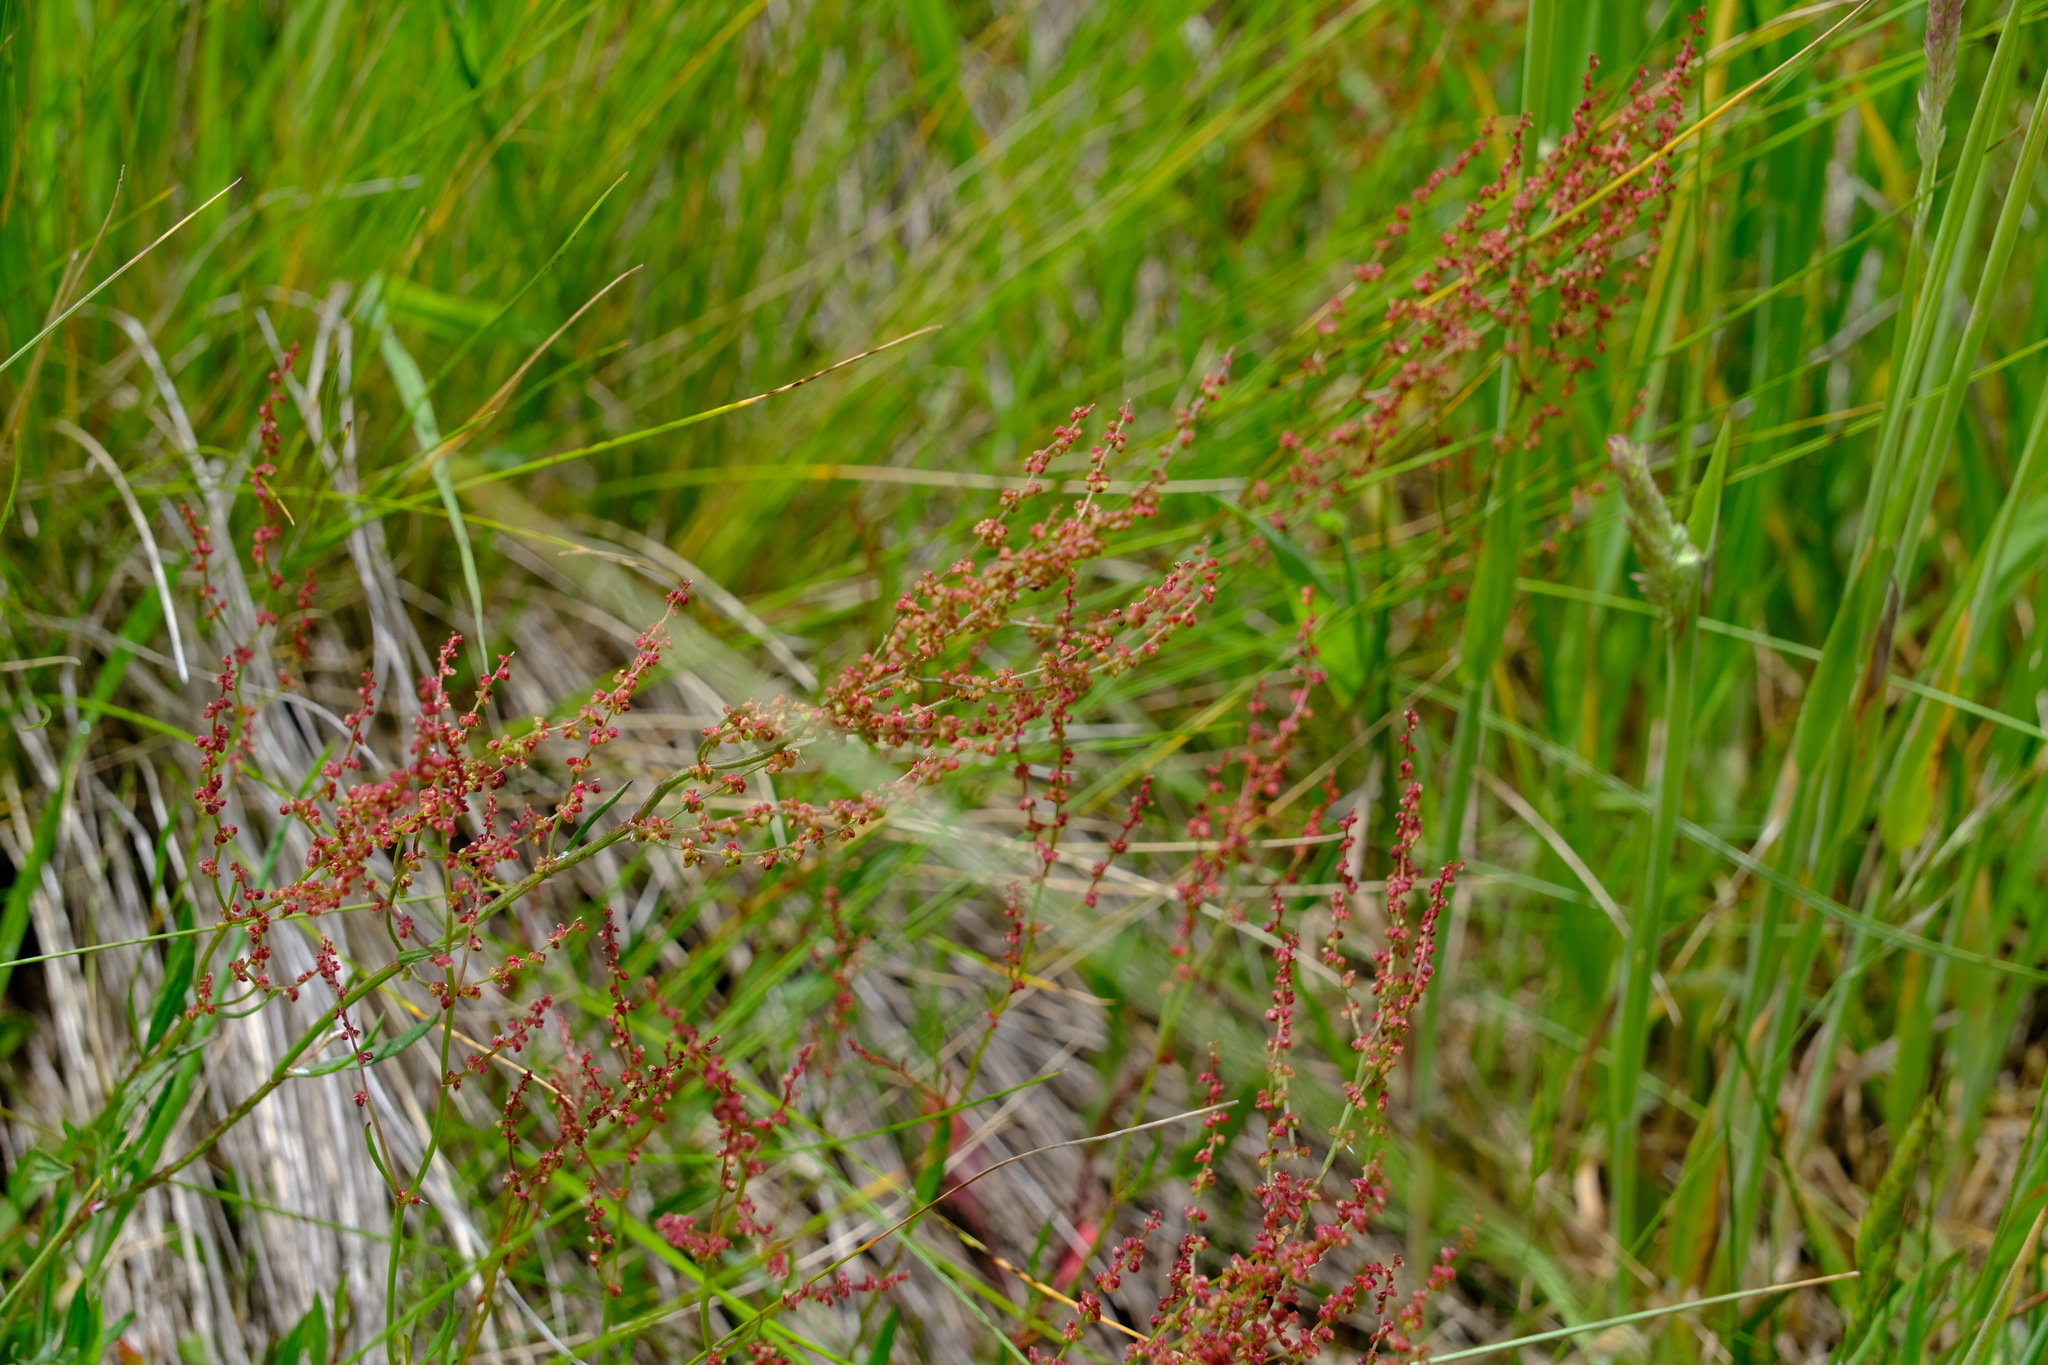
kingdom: Plantae
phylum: Tracheophyta
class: Magnoliopsida
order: Caryophyllales
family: Polygonaceae
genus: Rumex
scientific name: Rumex acetosella
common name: Common sheep sorrel
